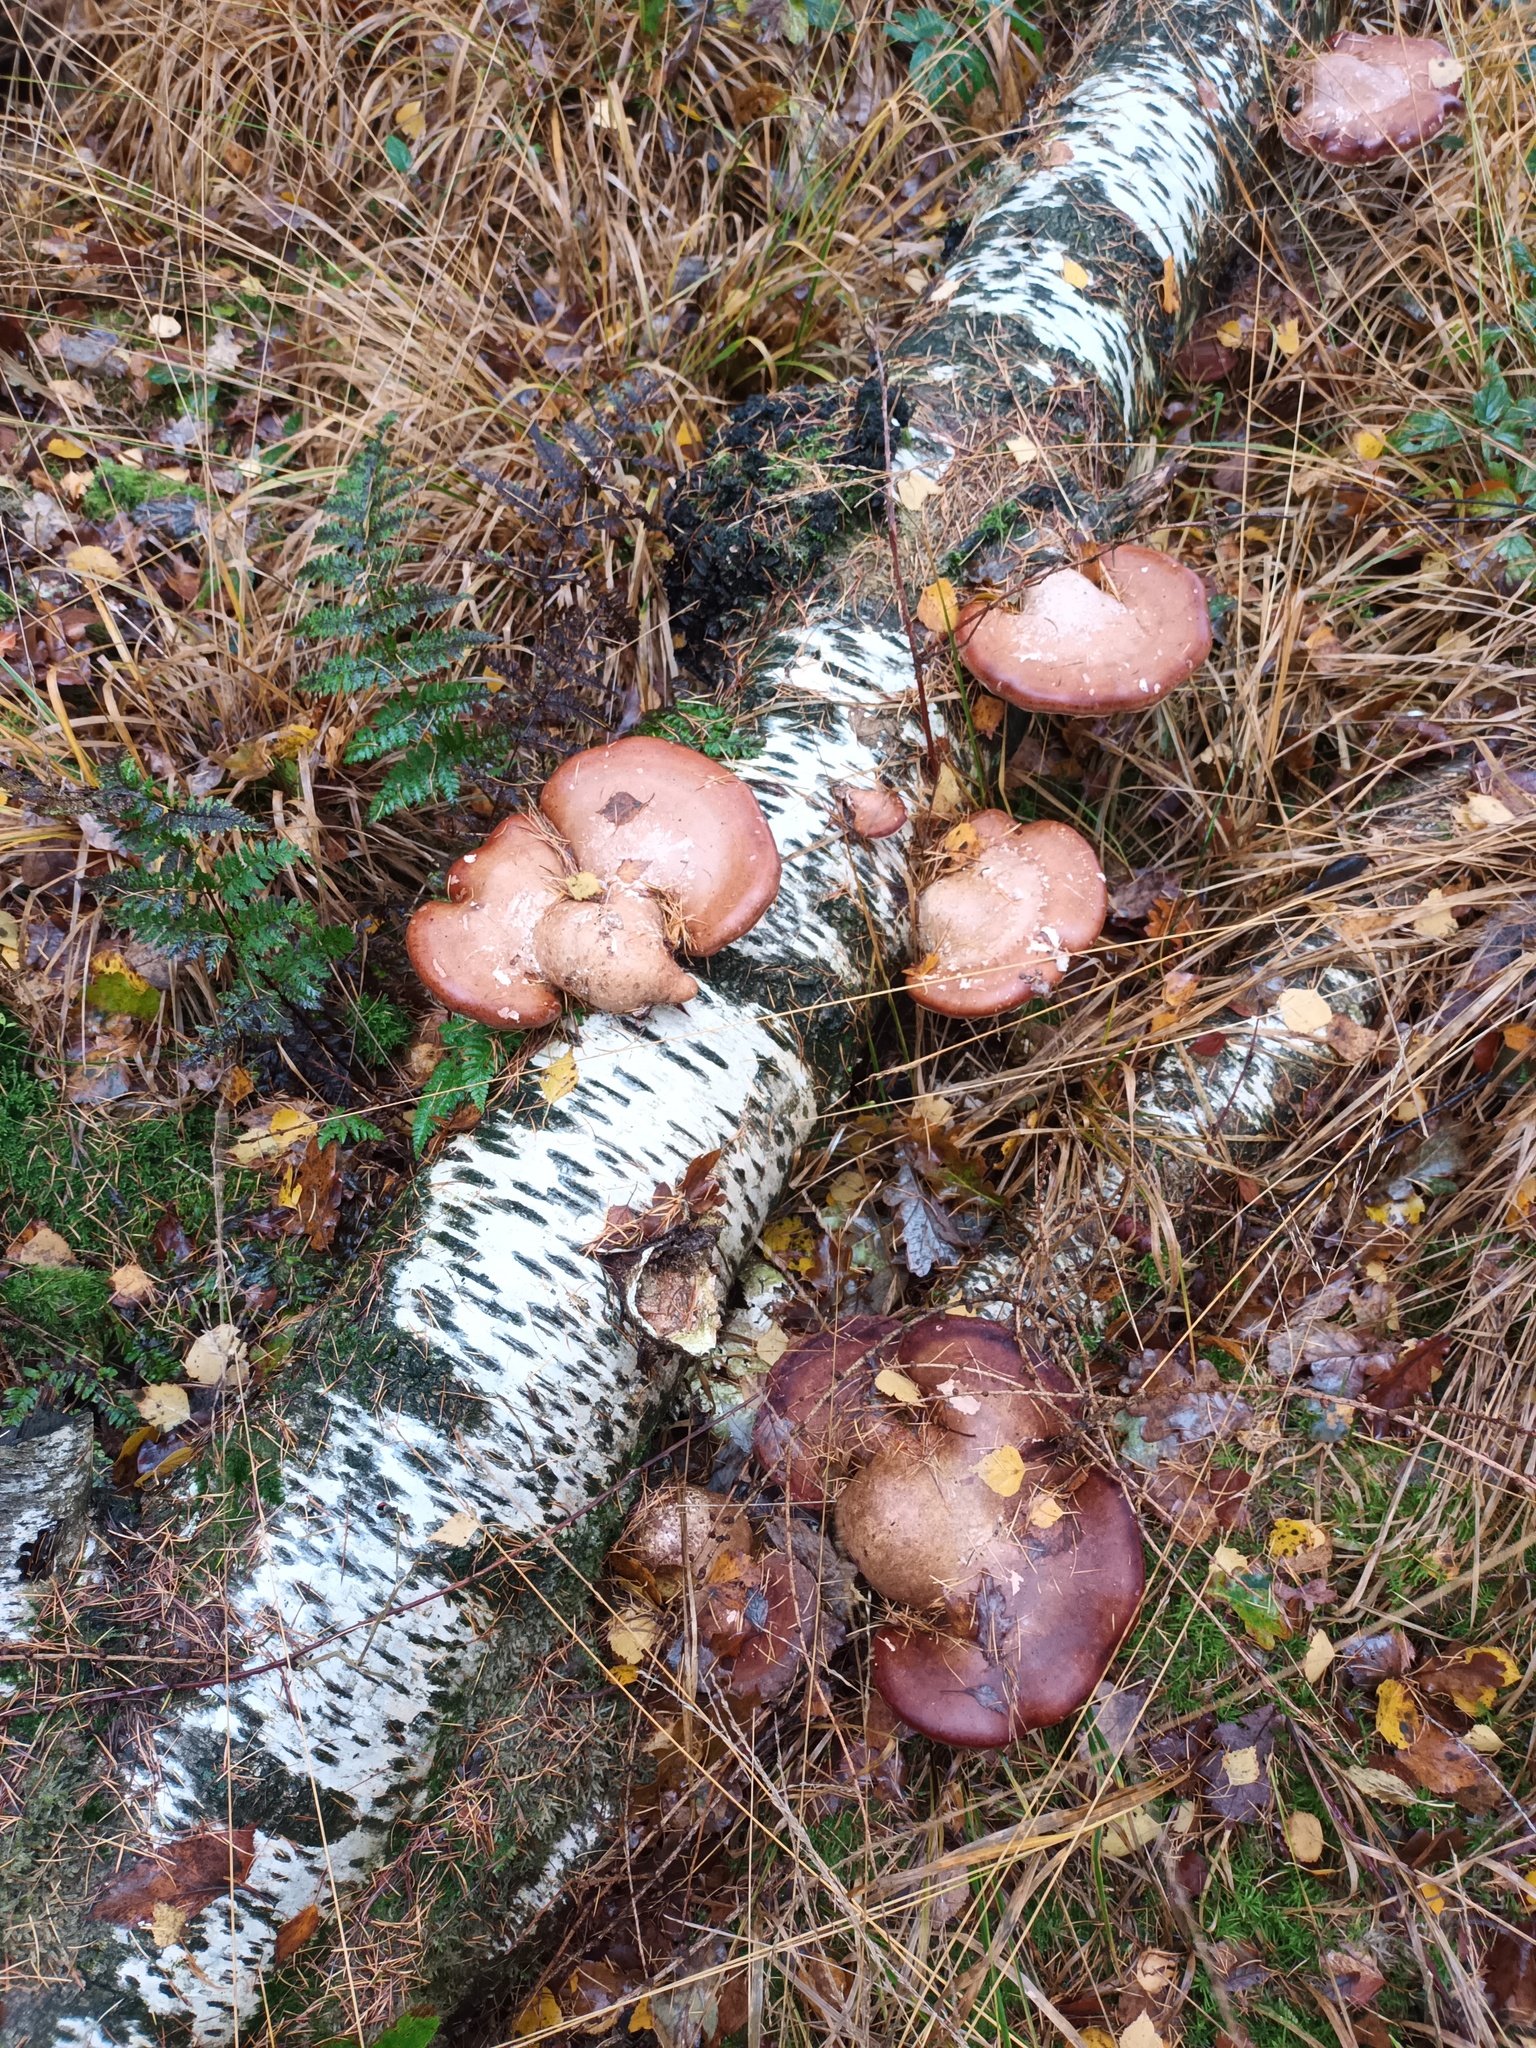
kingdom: Fungi
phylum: Basidiomycota
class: Agaricomycetes
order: Polyporales
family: Fomitopsidaceae
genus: Fomitopsis
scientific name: Fomitopsis betulina
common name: Birch polypore
